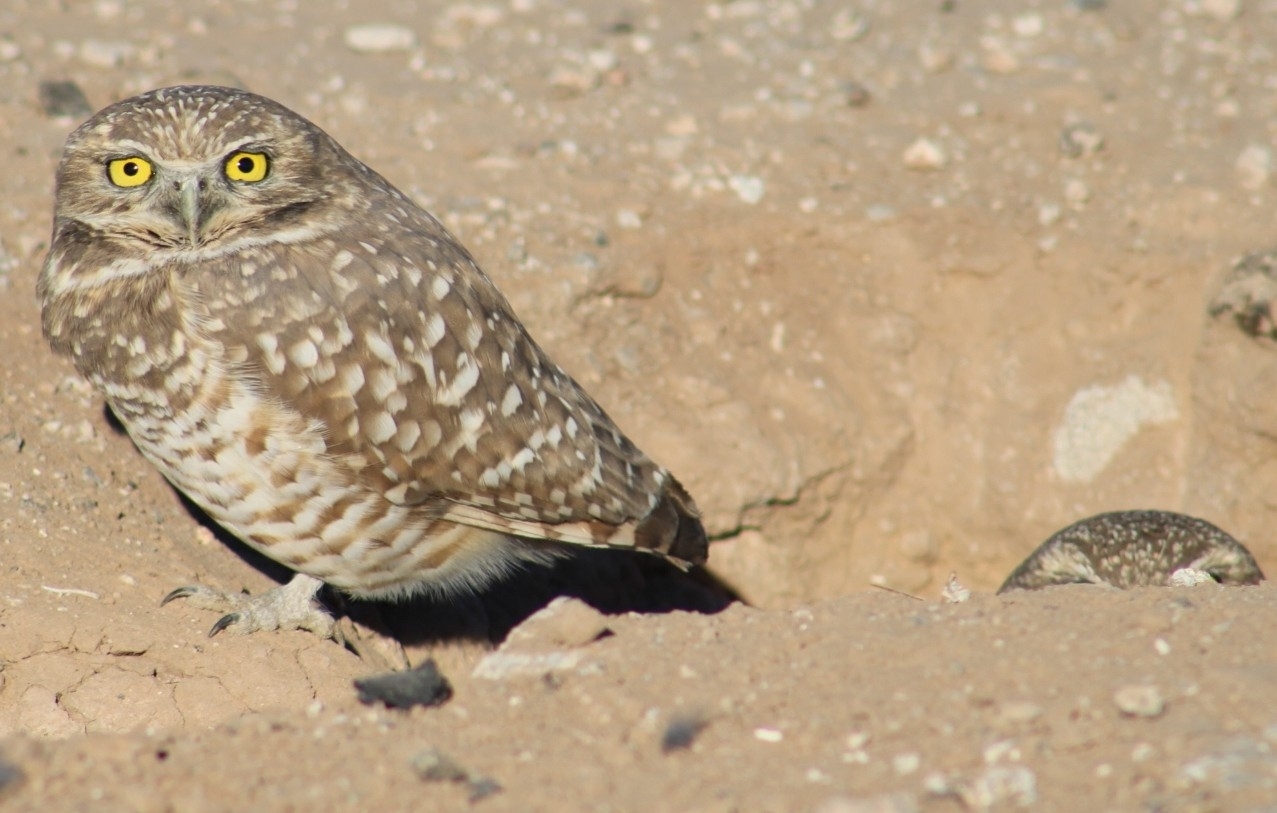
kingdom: Animalia
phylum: Chordata
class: Aves
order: Strigiformes
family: Strigidae
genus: Athene
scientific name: Athene cunicularia
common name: Burrowing owl
